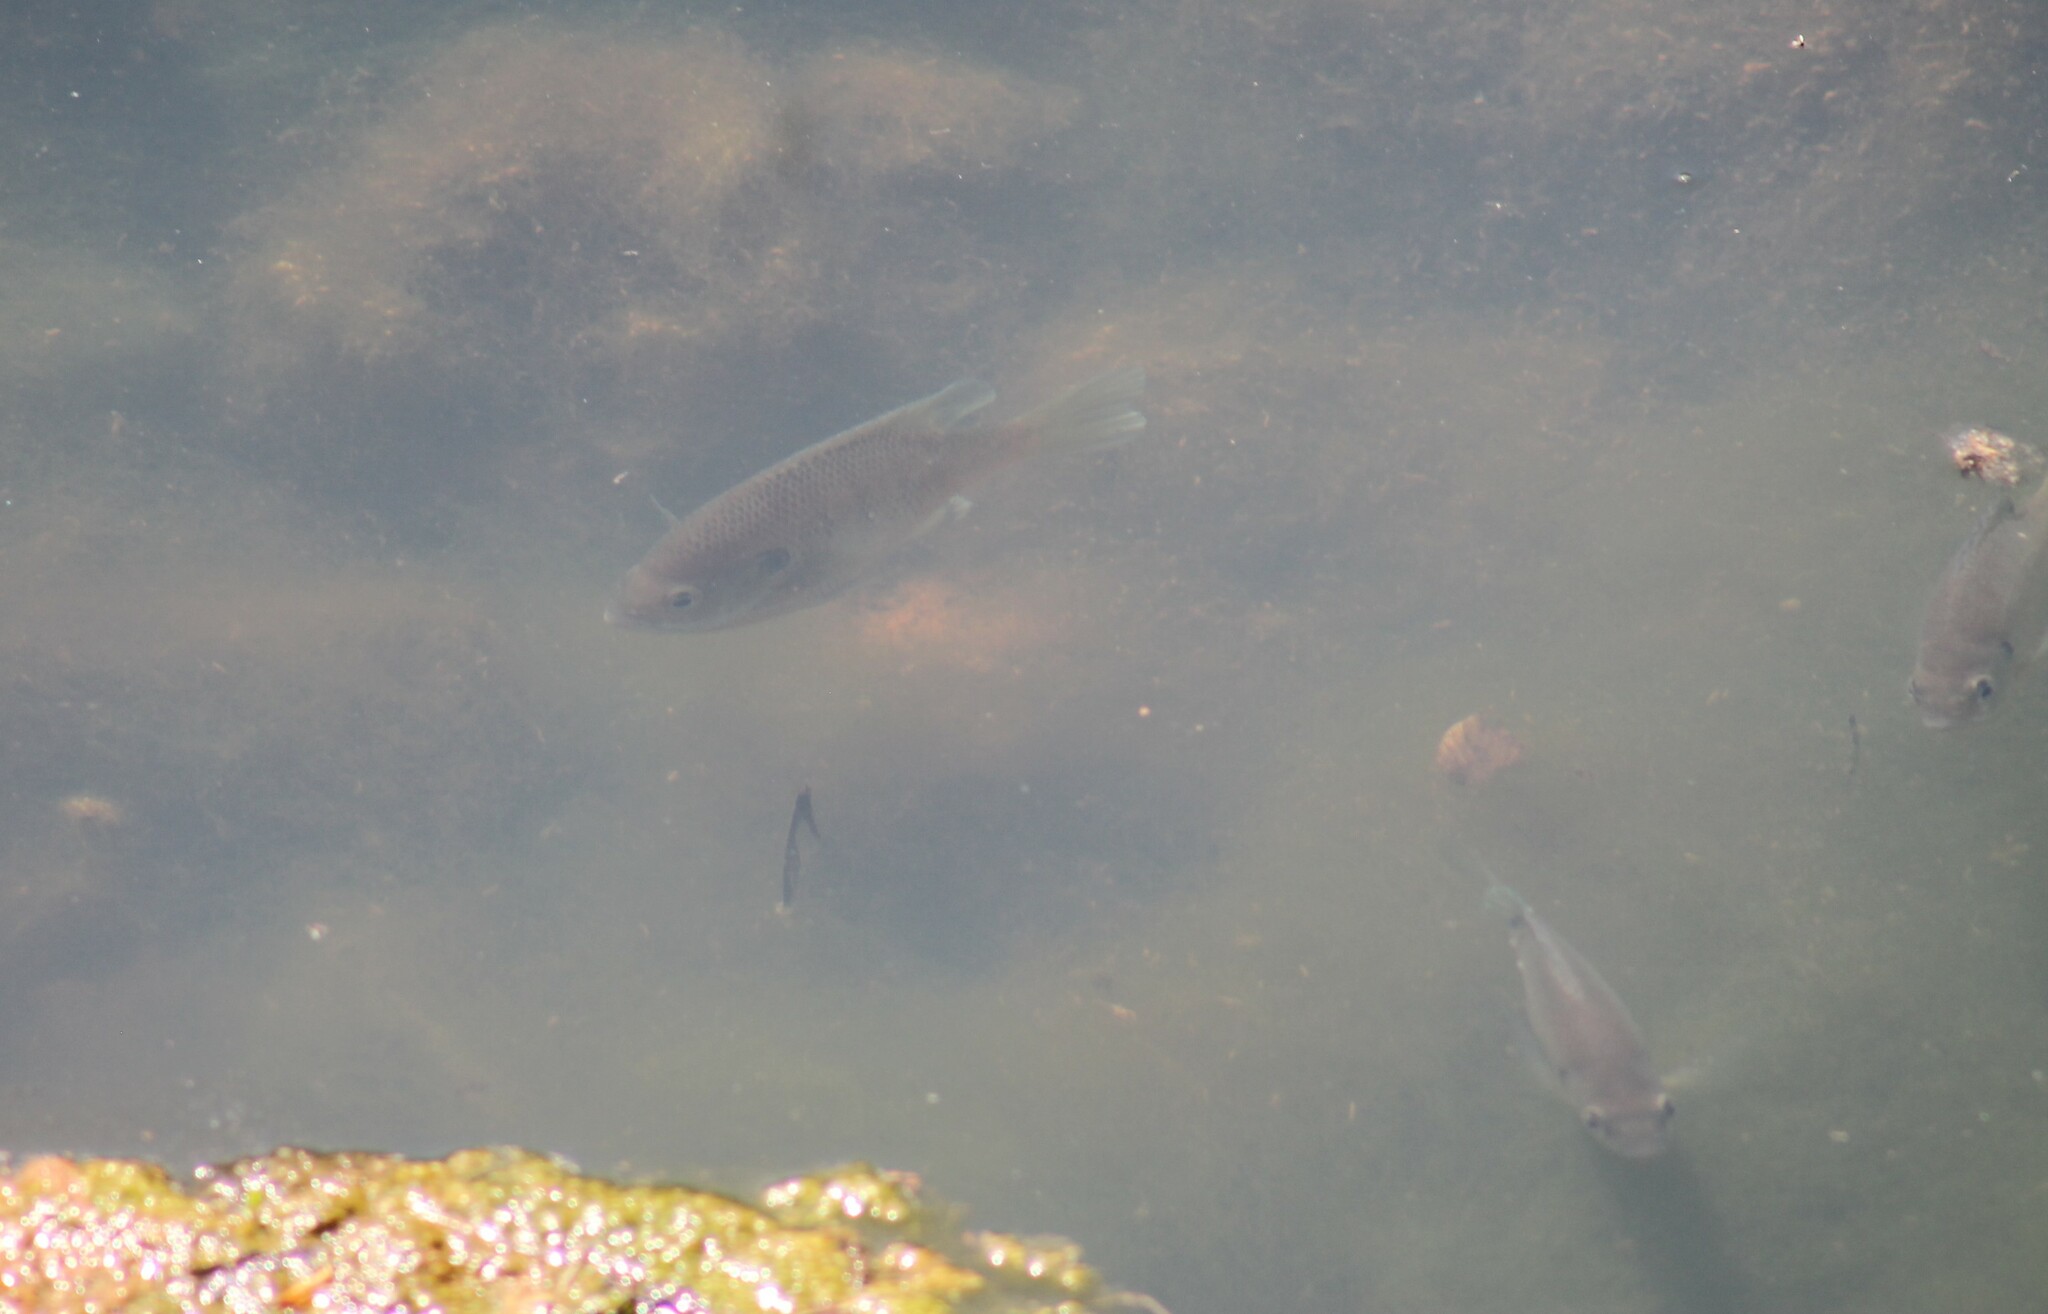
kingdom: Animalia
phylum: Chordata
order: Perciformes
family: Centrarchidae
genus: Lepomis
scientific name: Lepomis macrochirus
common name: Bluegill
